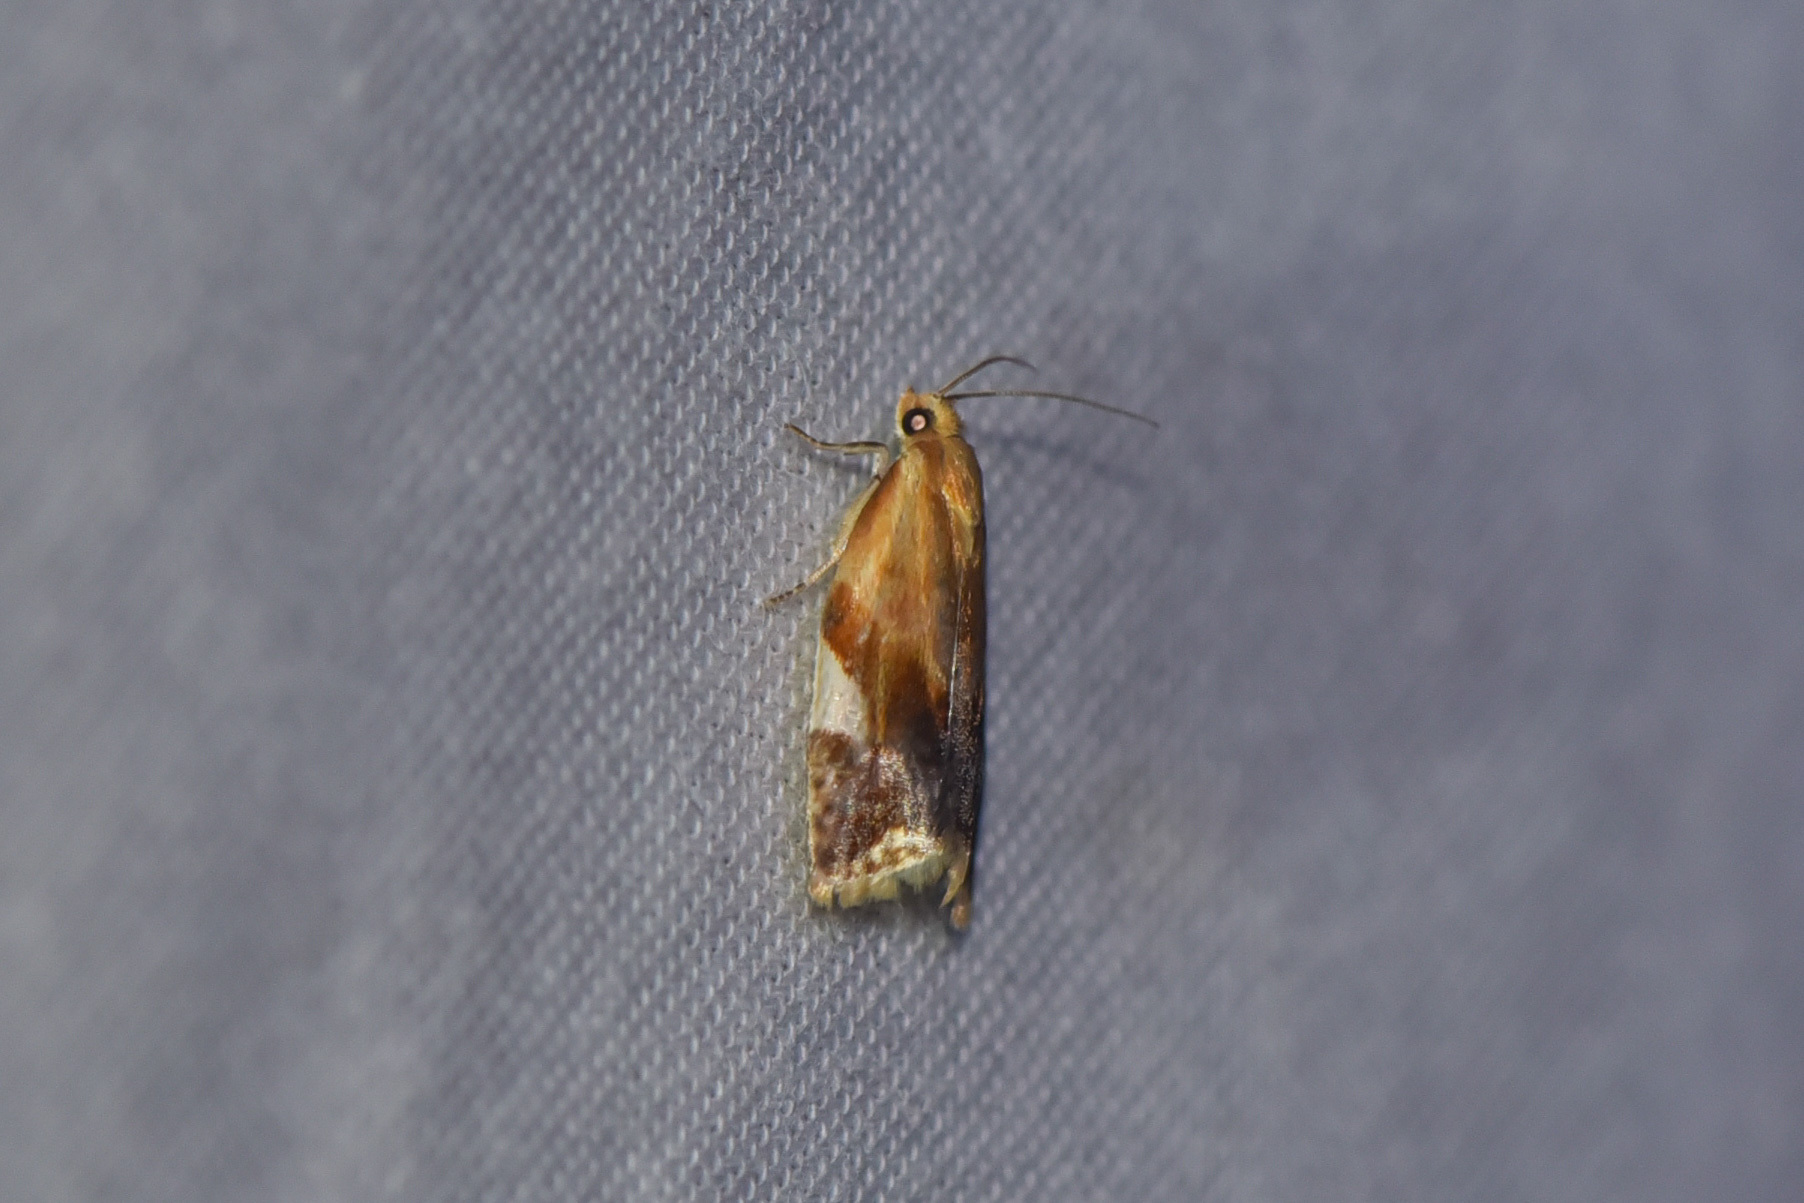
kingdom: Animalia
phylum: Arthropoda
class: Insecta
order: Lepidoptera
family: Tortricidae
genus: Clepsis
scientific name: Clepsis persicana
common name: White triangle tortrix
